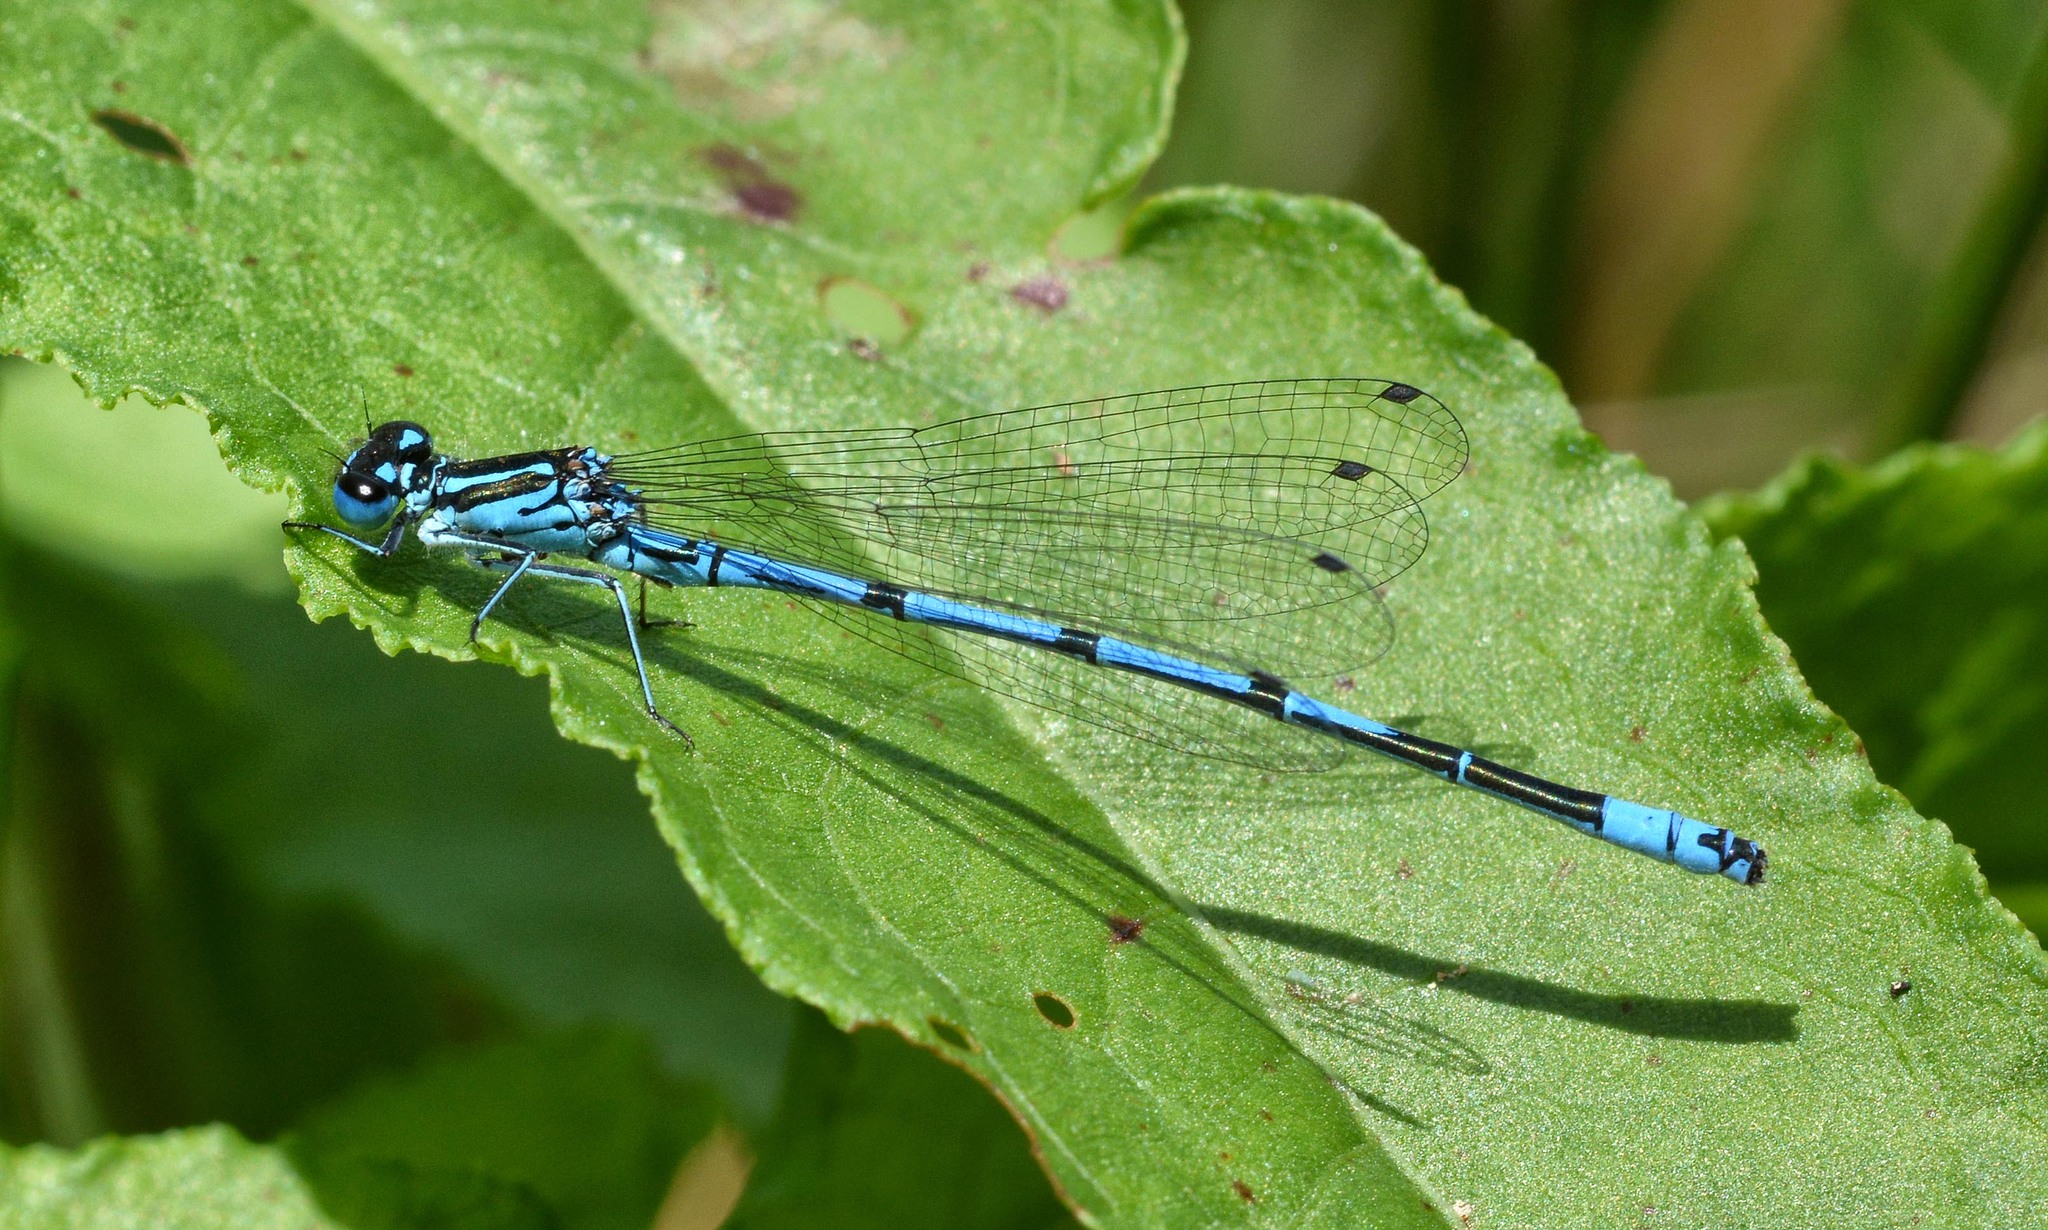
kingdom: Animalia
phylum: Arthropoda
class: Insecta
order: Odonata
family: Coenagrionidae
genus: Coenagrion
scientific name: Coenagrion puella
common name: Azure damselfly
